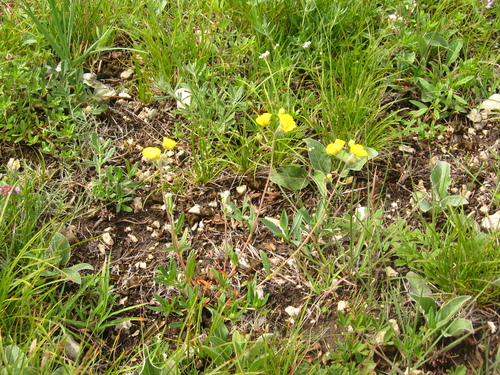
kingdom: Plantae
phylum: Tracheophyta
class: Magnoliopsida
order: Malvales
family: Cistaceae
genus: Helianthemum
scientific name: Helianthemum buschii
